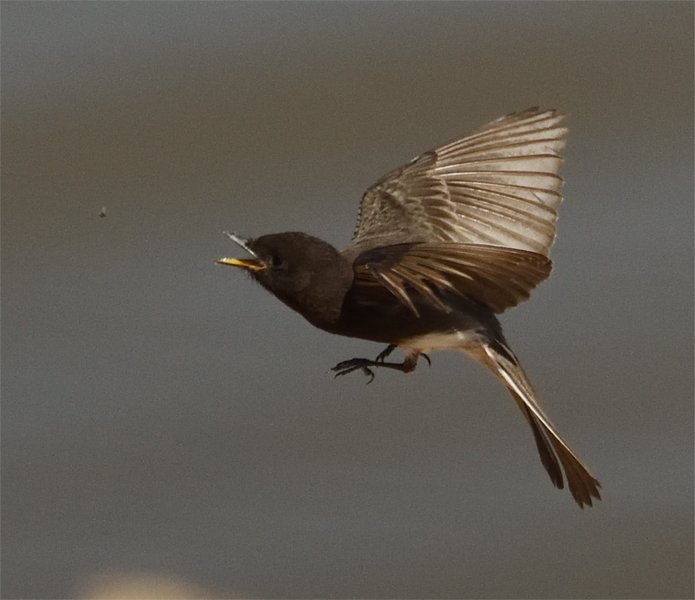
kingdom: Animalia
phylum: Chordata
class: Aves
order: Passeriformes
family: Tyrannidae
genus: Sayornis
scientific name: Sayornis nigricans
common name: Black phoebe
